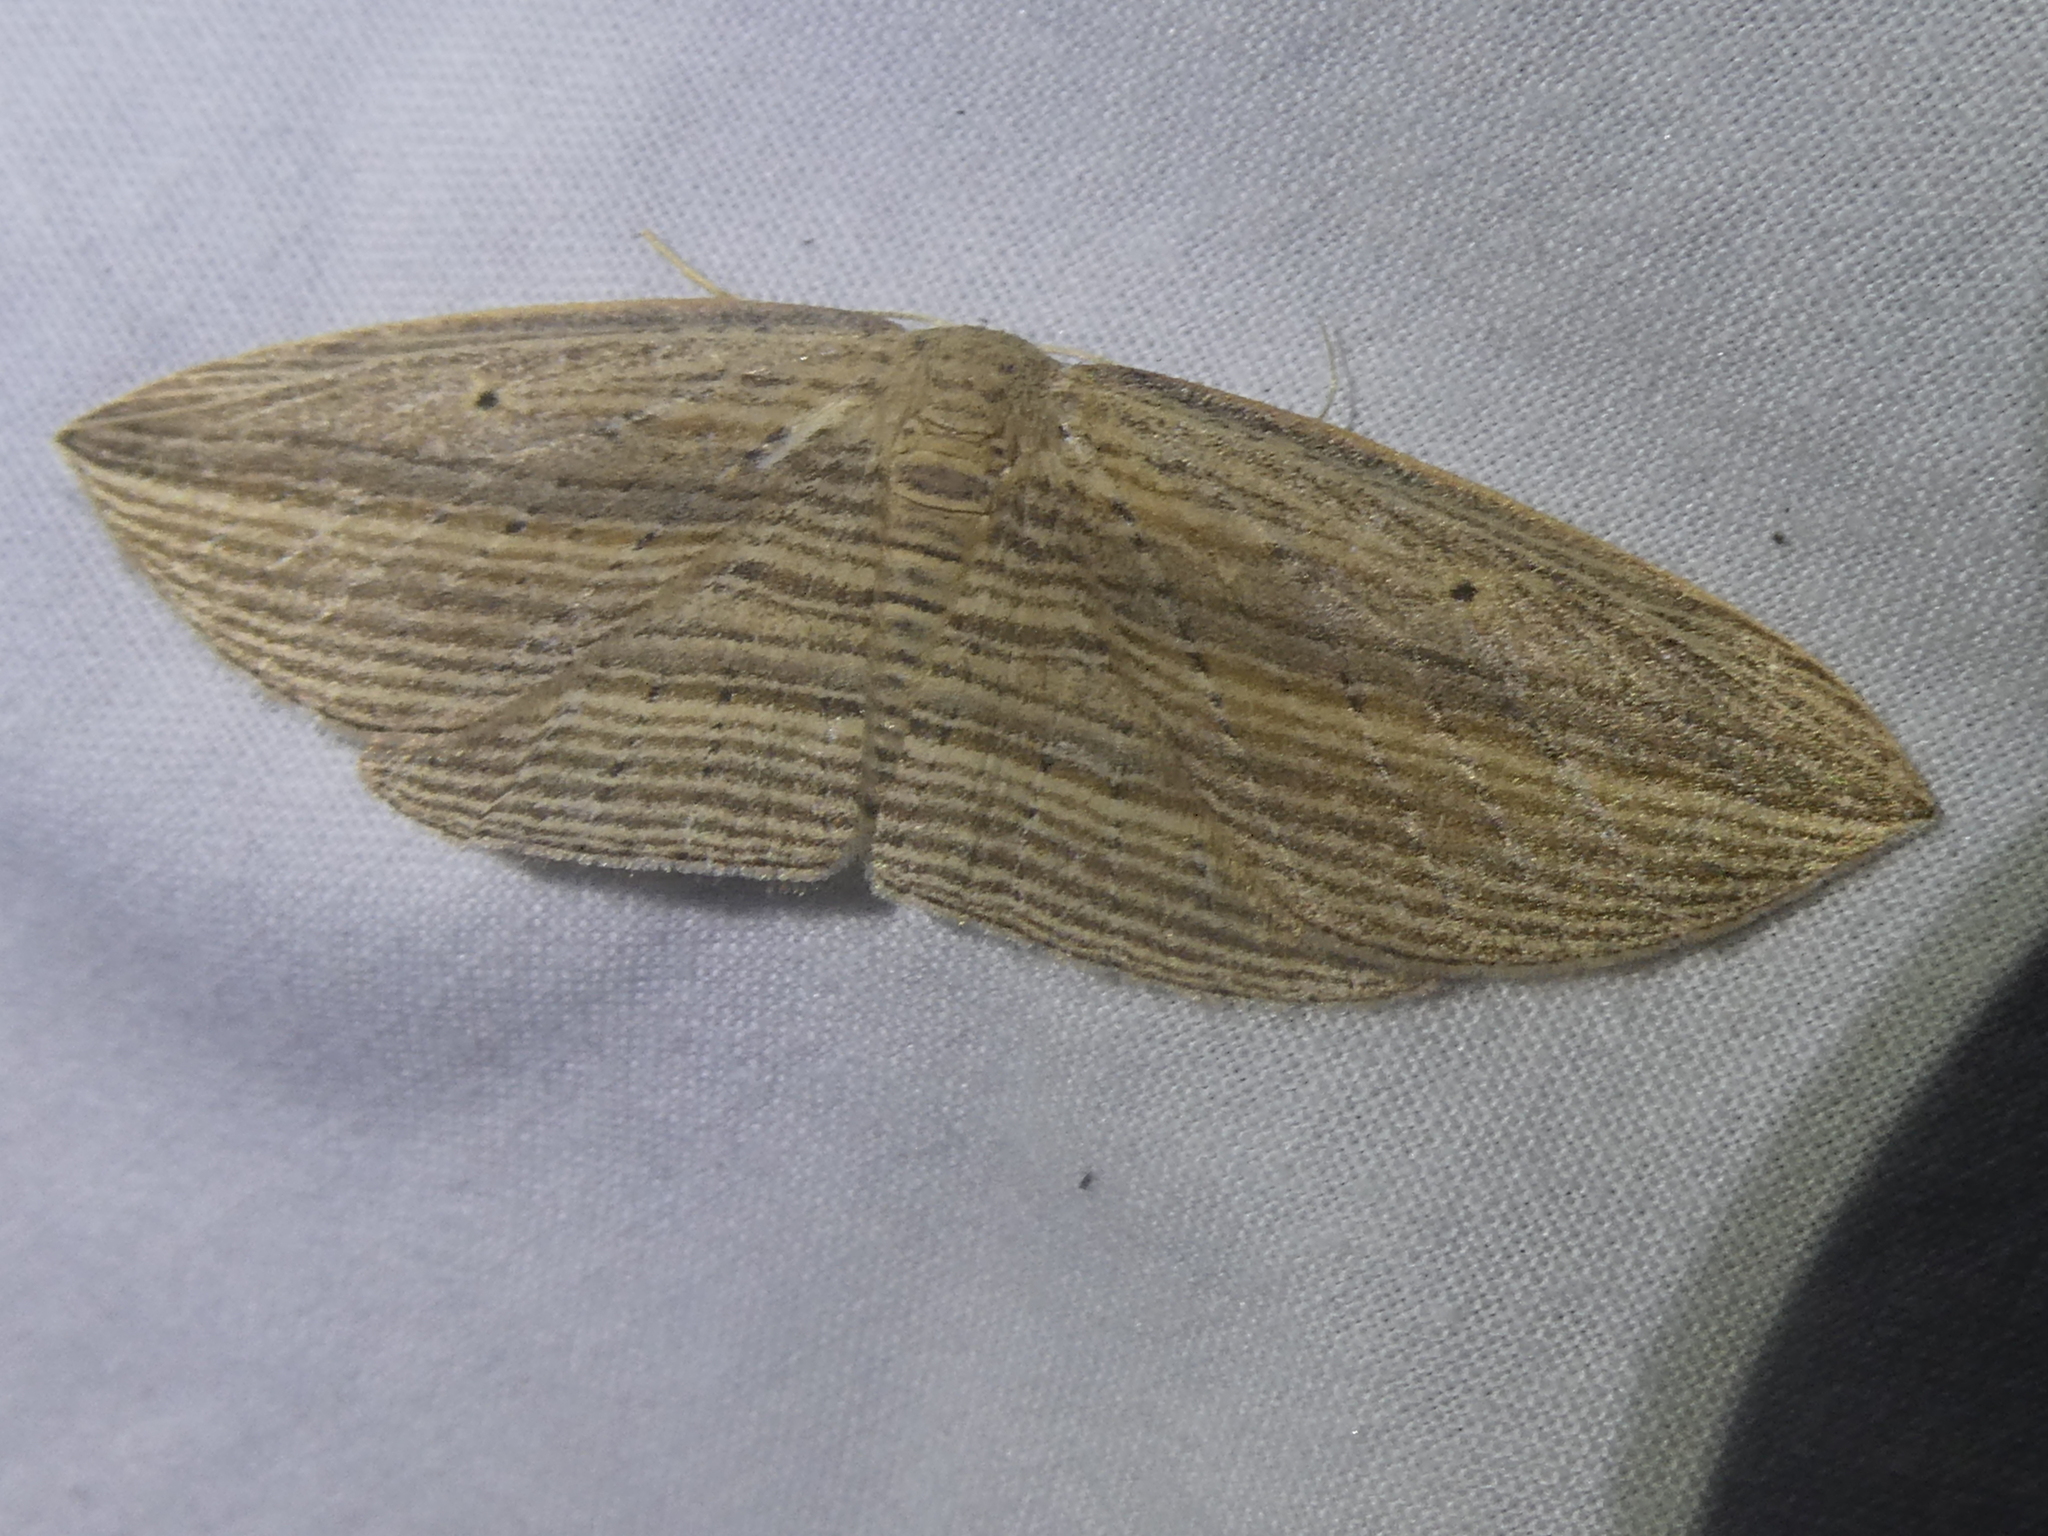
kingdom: Animalia
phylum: Arthropoda
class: Insecta
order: Lepidoptera
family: Geometridae
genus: Epiphryne
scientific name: Epiphryne verriculata
